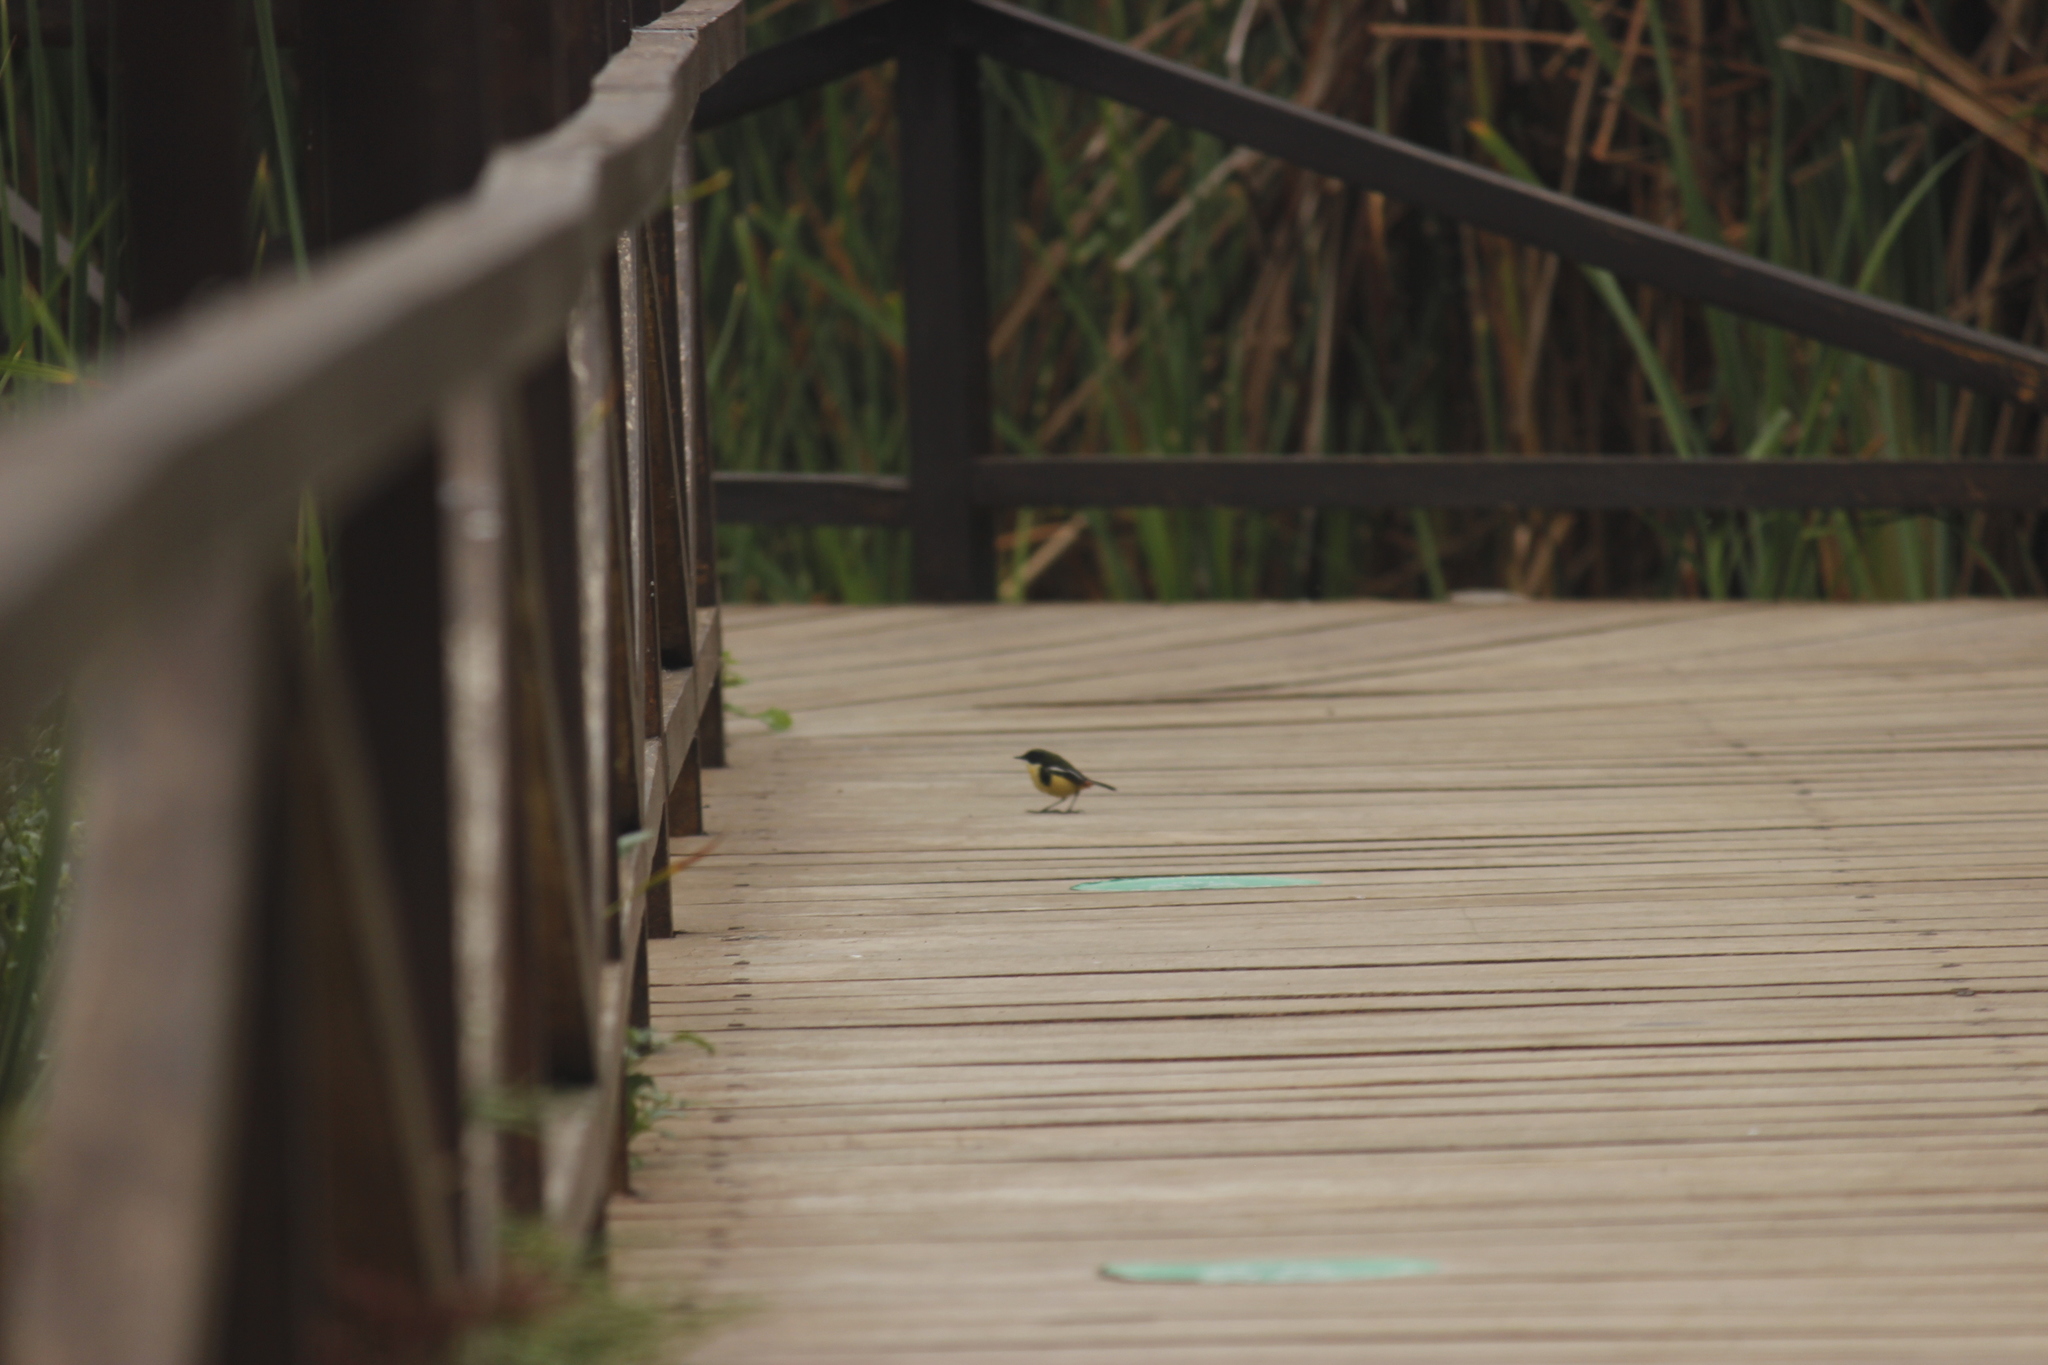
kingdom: Animalia
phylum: Chordata
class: Aves
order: Passeriformes
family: Tyrannidae
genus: Tachuris
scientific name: Tachuris rubrigastra
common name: Many-colored rush tyrant
